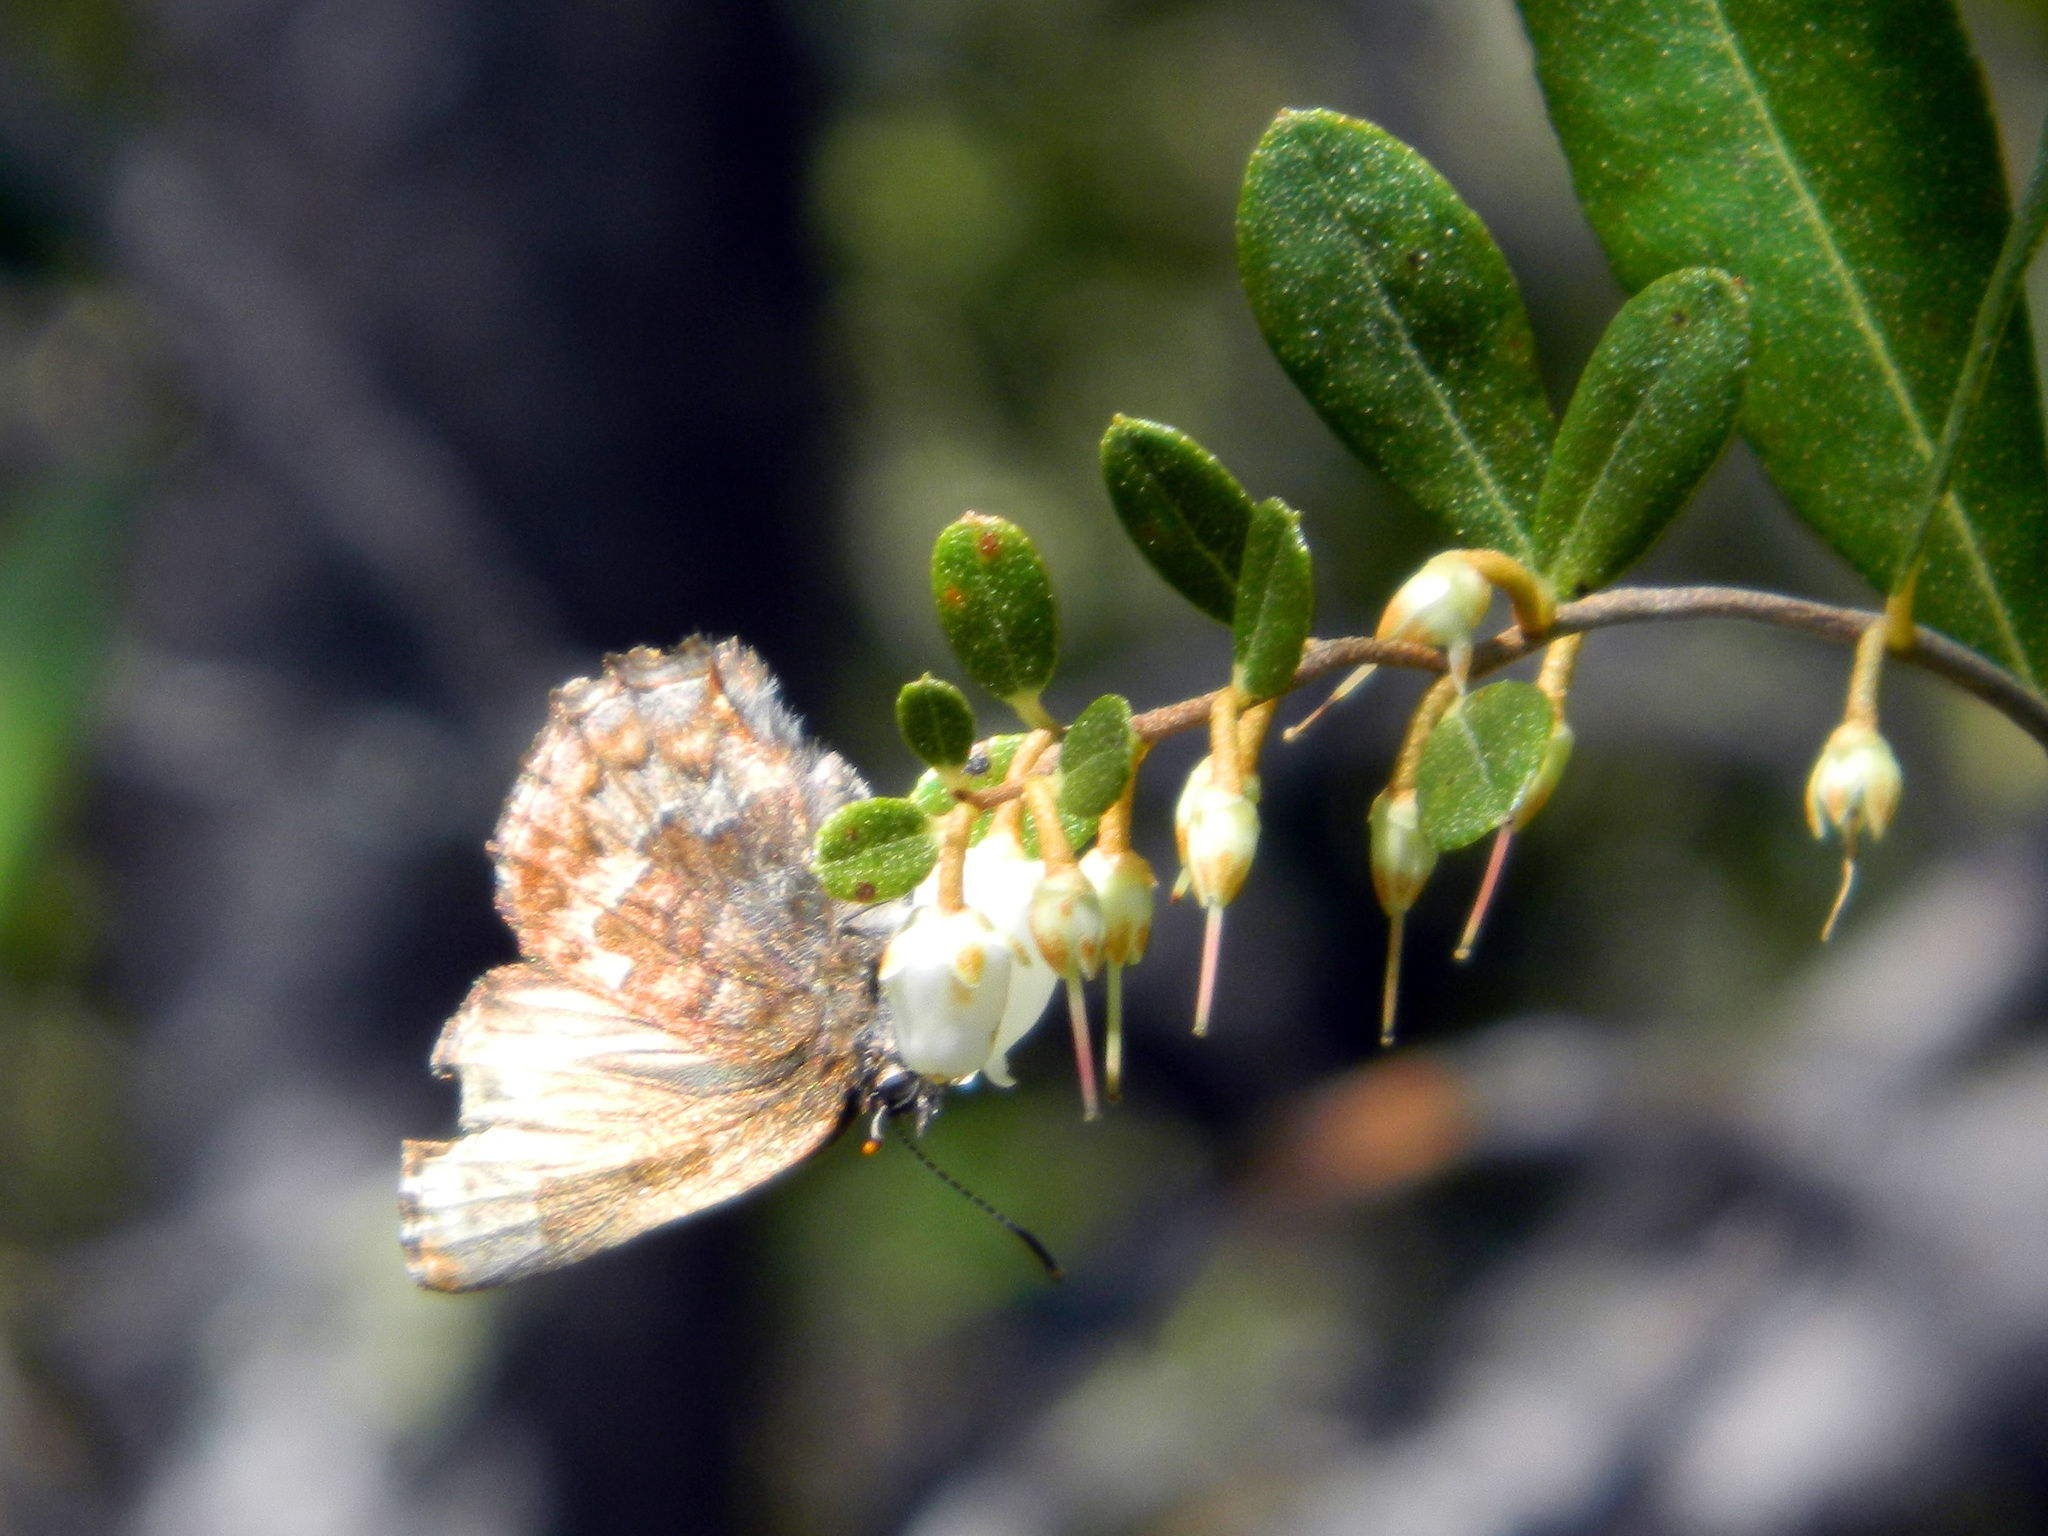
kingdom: Animalia
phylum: Arthropoda
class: Insecta
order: Lepidoptera
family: Lycaenidae
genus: Incisalia
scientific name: Incisalia niphon
